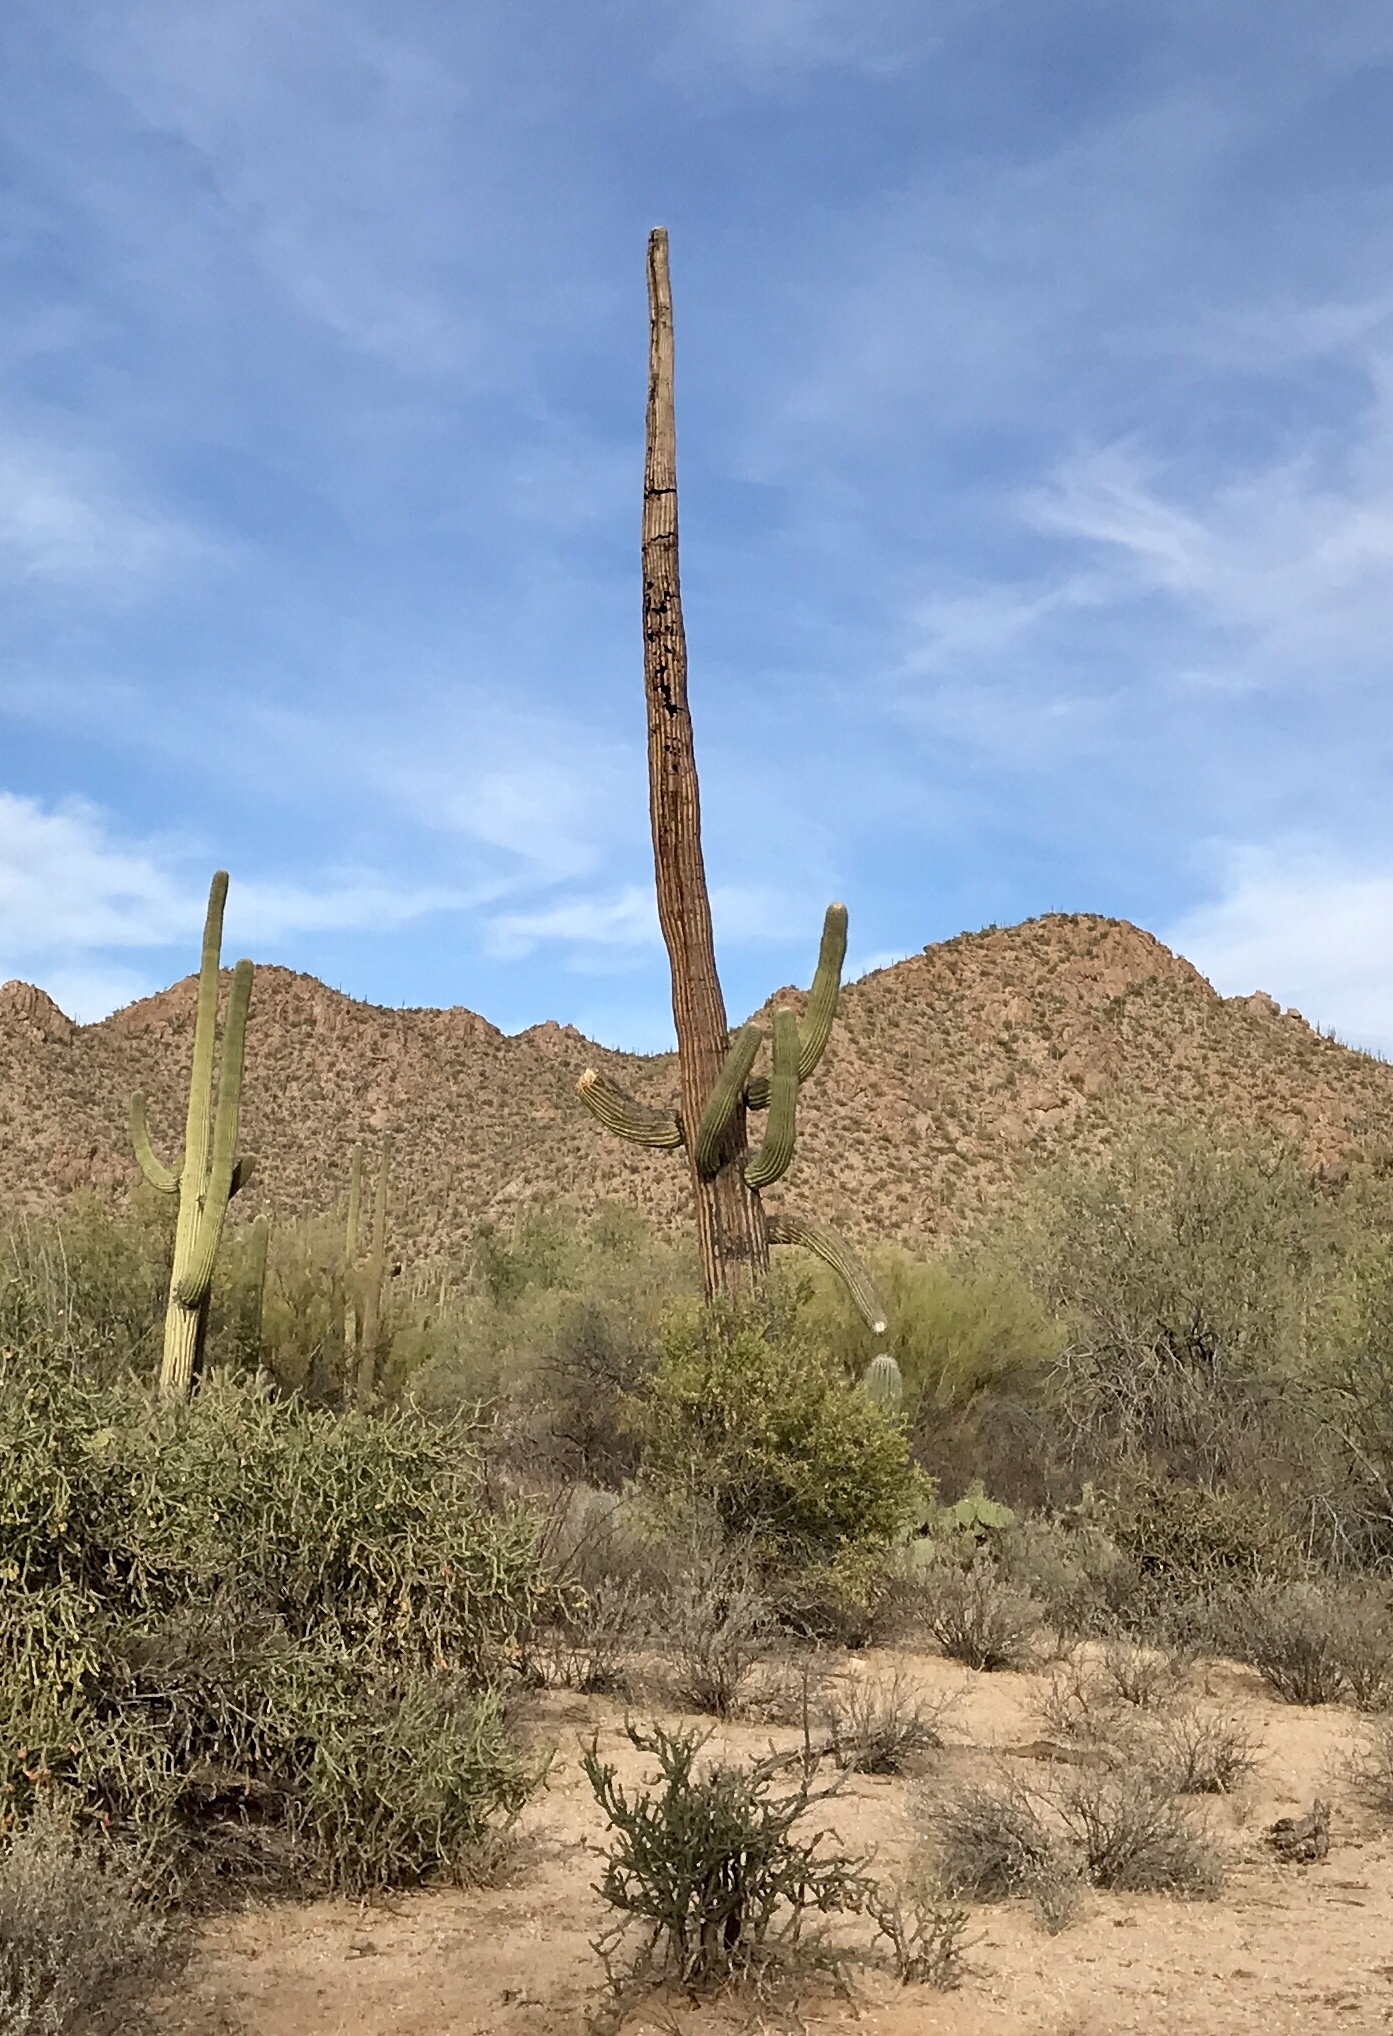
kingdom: Plantae
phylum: Tracheophyta
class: Magnoliopsida
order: Caryophyllales
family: Cactaceae
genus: Carnegiea
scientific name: Carnegiea gigantea
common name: Saguaro
